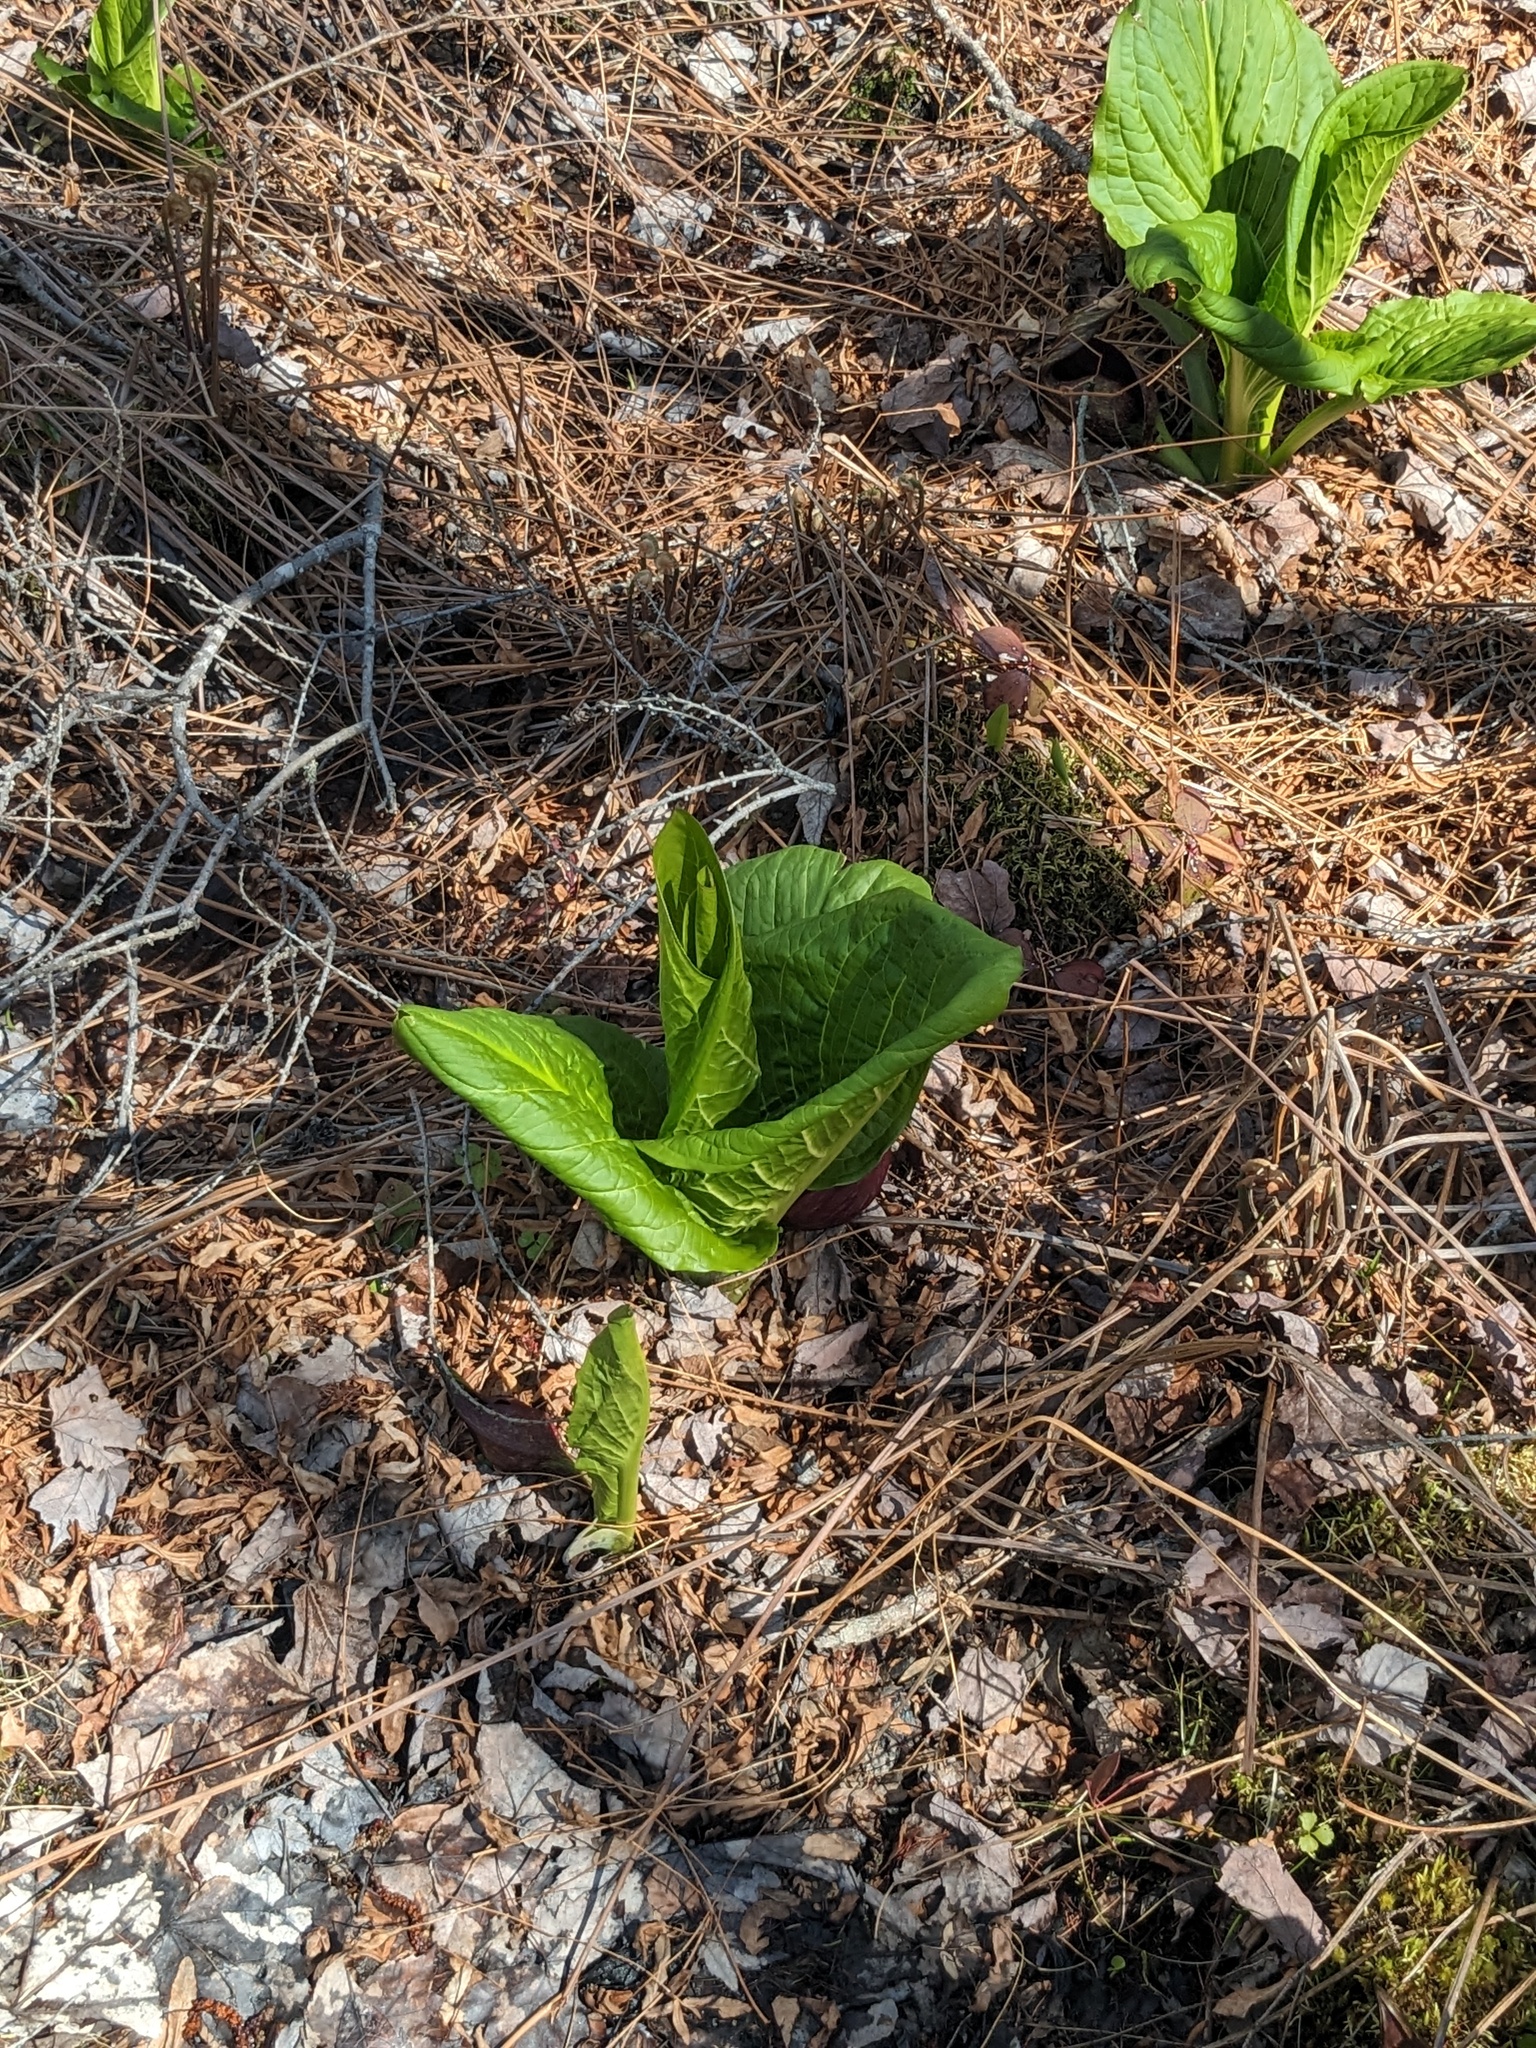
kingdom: Plantae
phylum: Tracheophyta
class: Liliopsida
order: Alismatales
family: Araceae
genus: Symplocarpus
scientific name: Symplocarpus foetidus
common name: Eastern skunk cabbage
